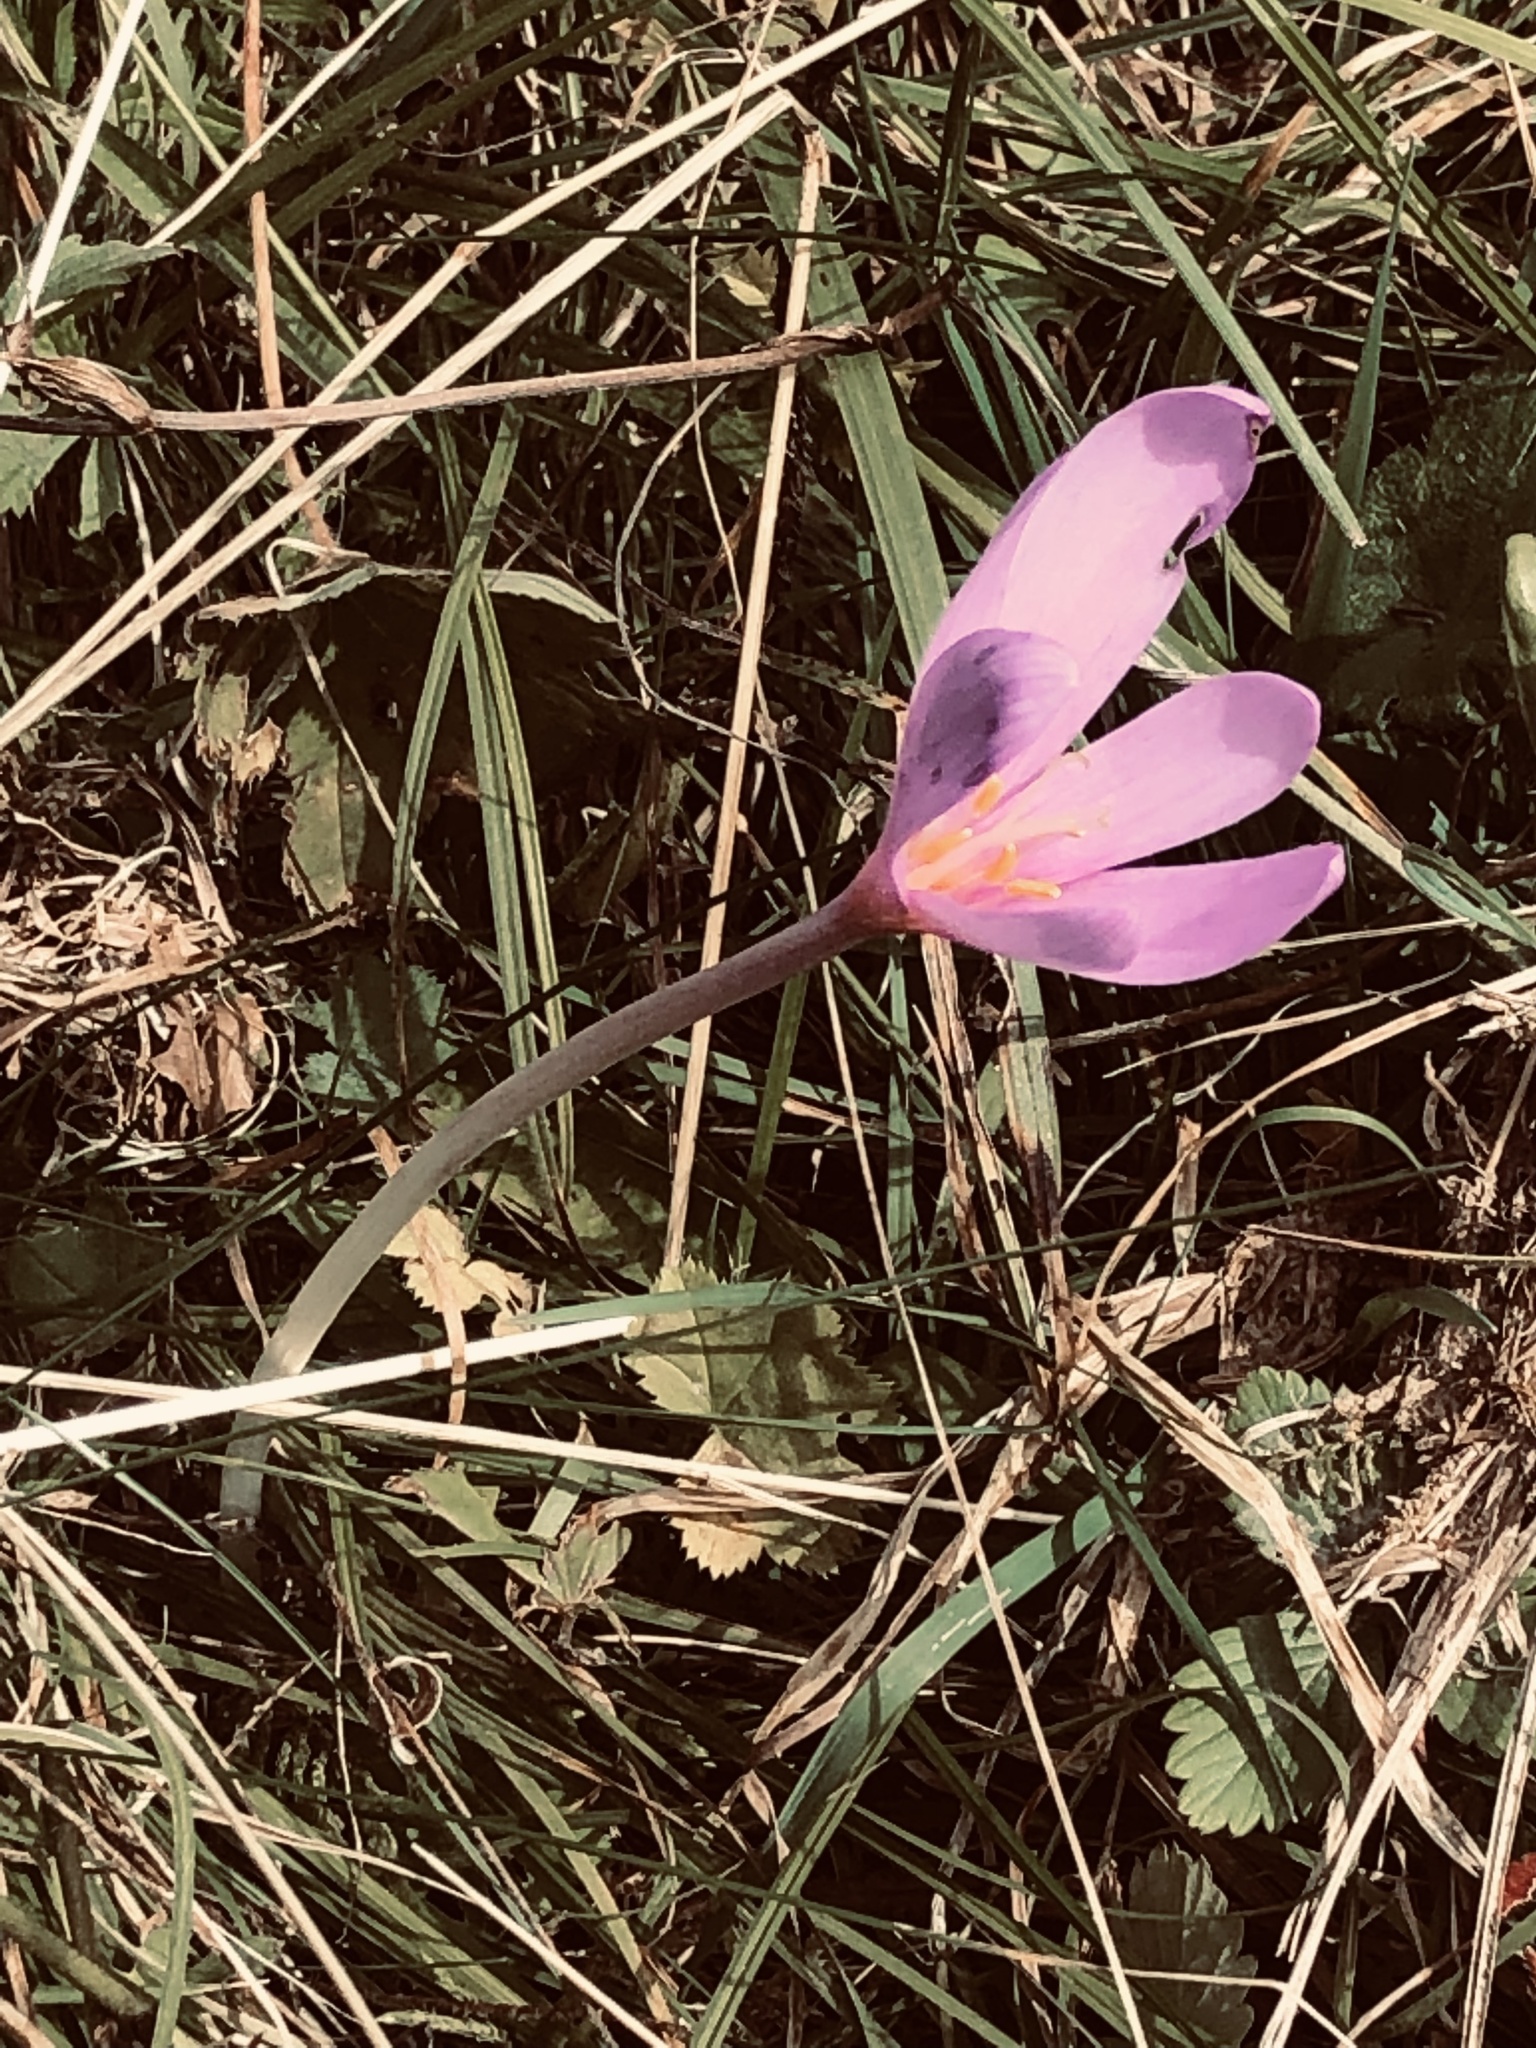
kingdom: Plantae
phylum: Tracheophyta
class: Liliopsida
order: Liliales
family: Colchicaceae
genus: Colchicum
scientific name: Colchicum autumnale
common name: Autumn crocus
